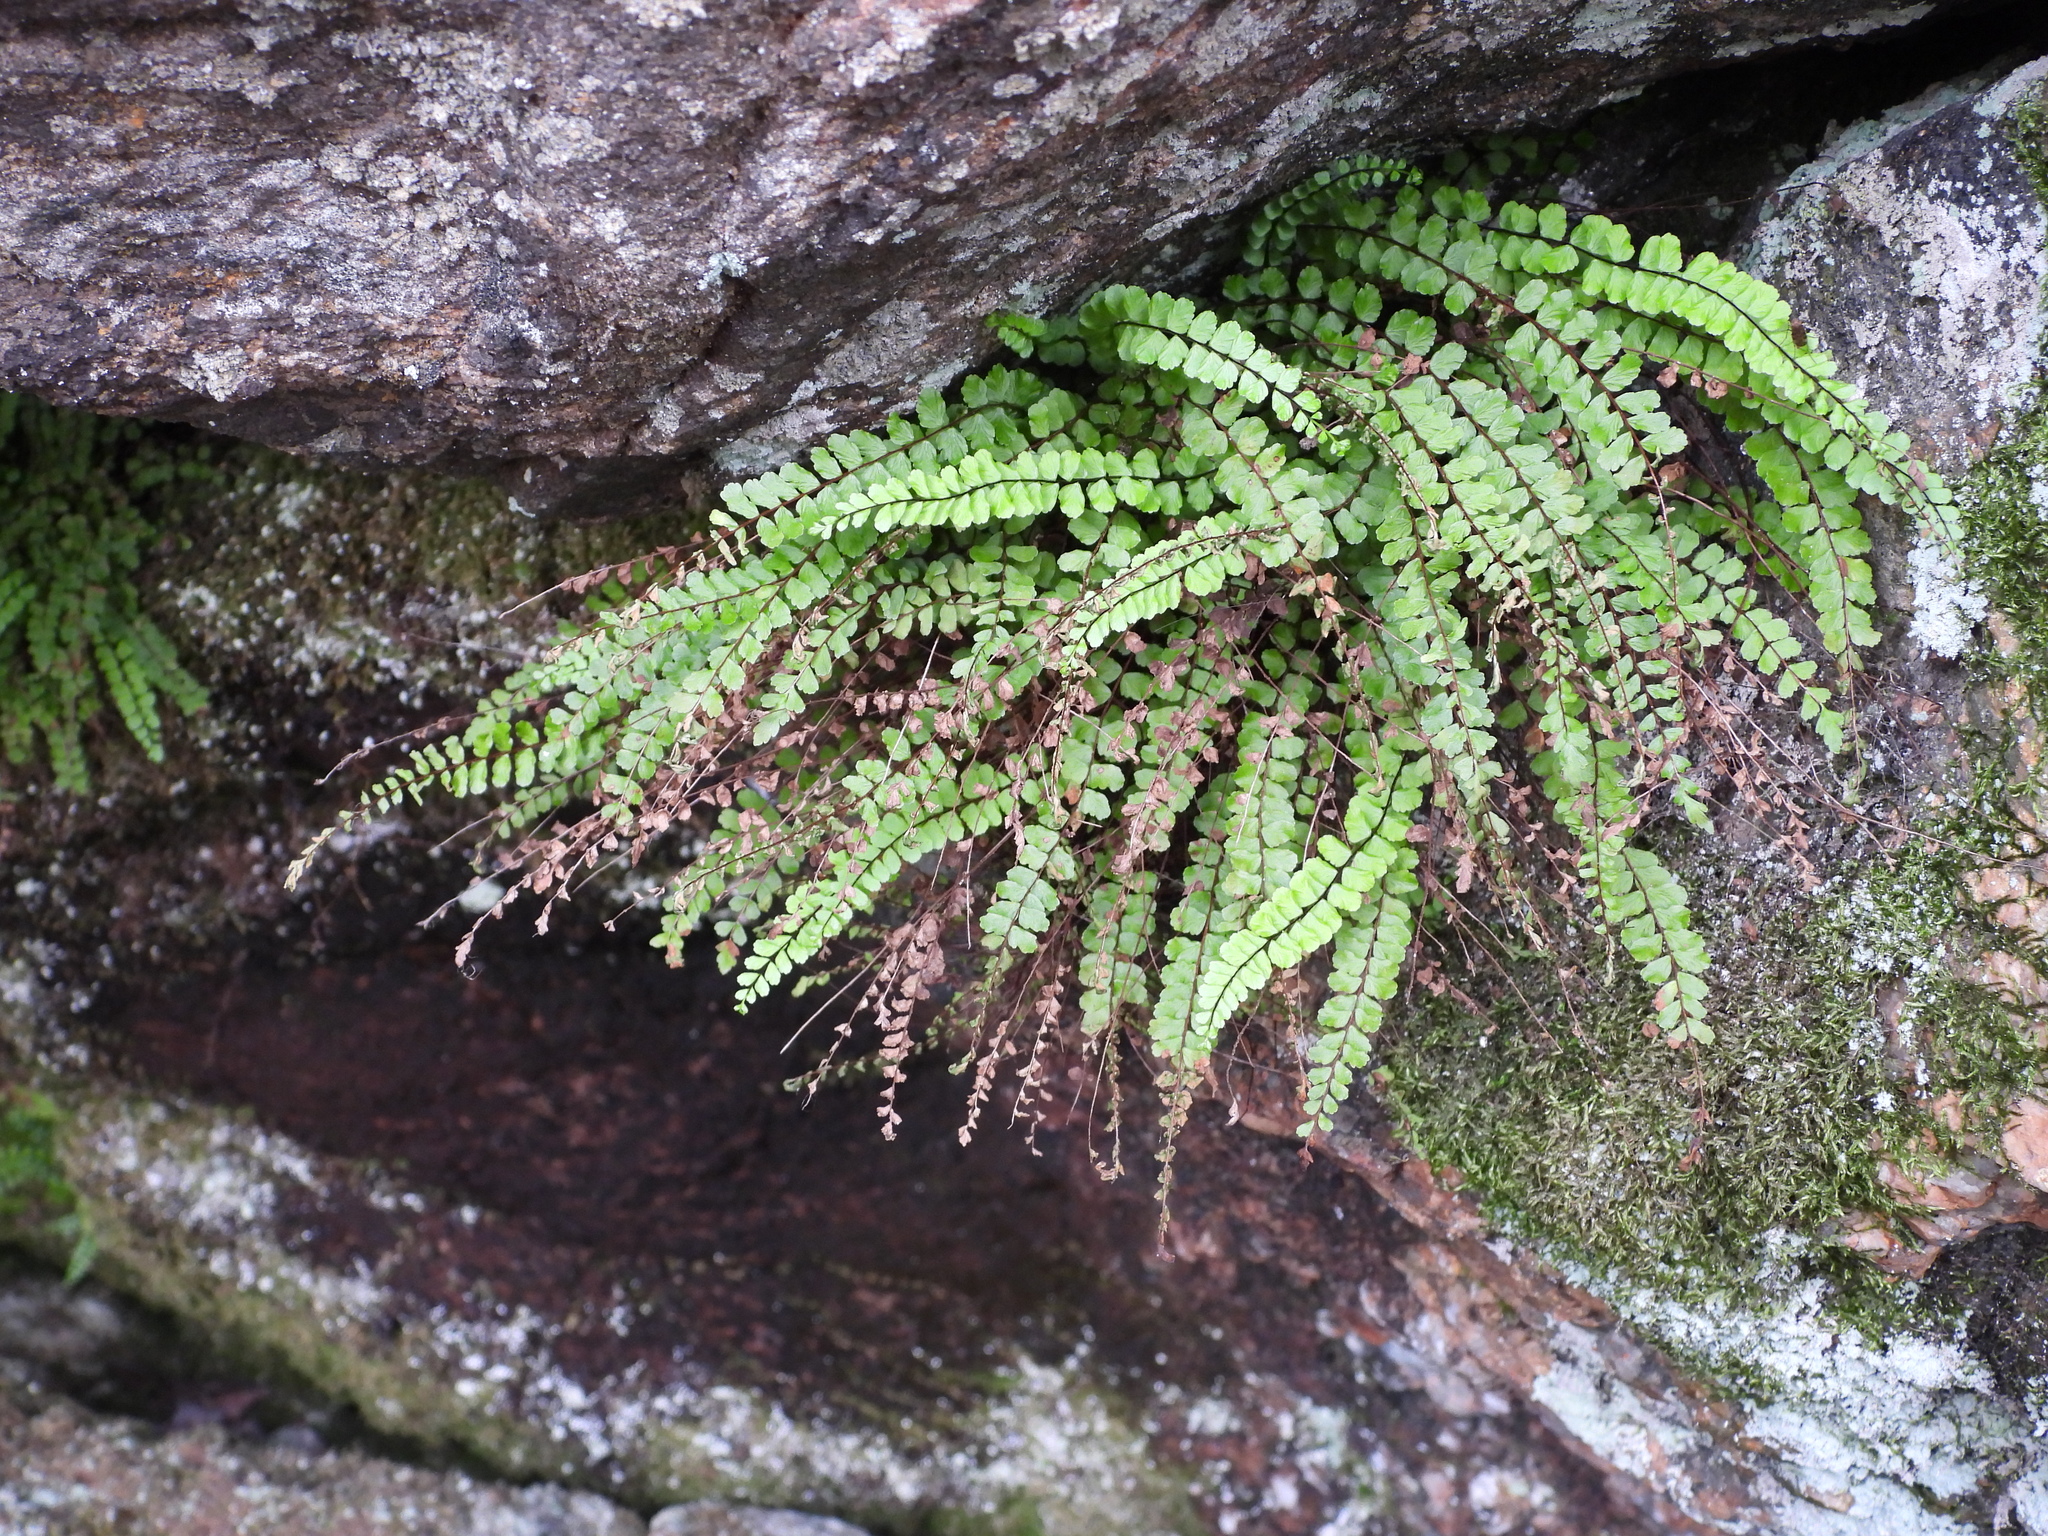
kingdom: Plantae
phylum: Tracheophyta
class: Polypodiopsida
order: Polypodiales
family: Aspleniaceae
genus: Asplenium
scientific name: Asplenium trichomanes
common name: Maidenhair spleenwort
